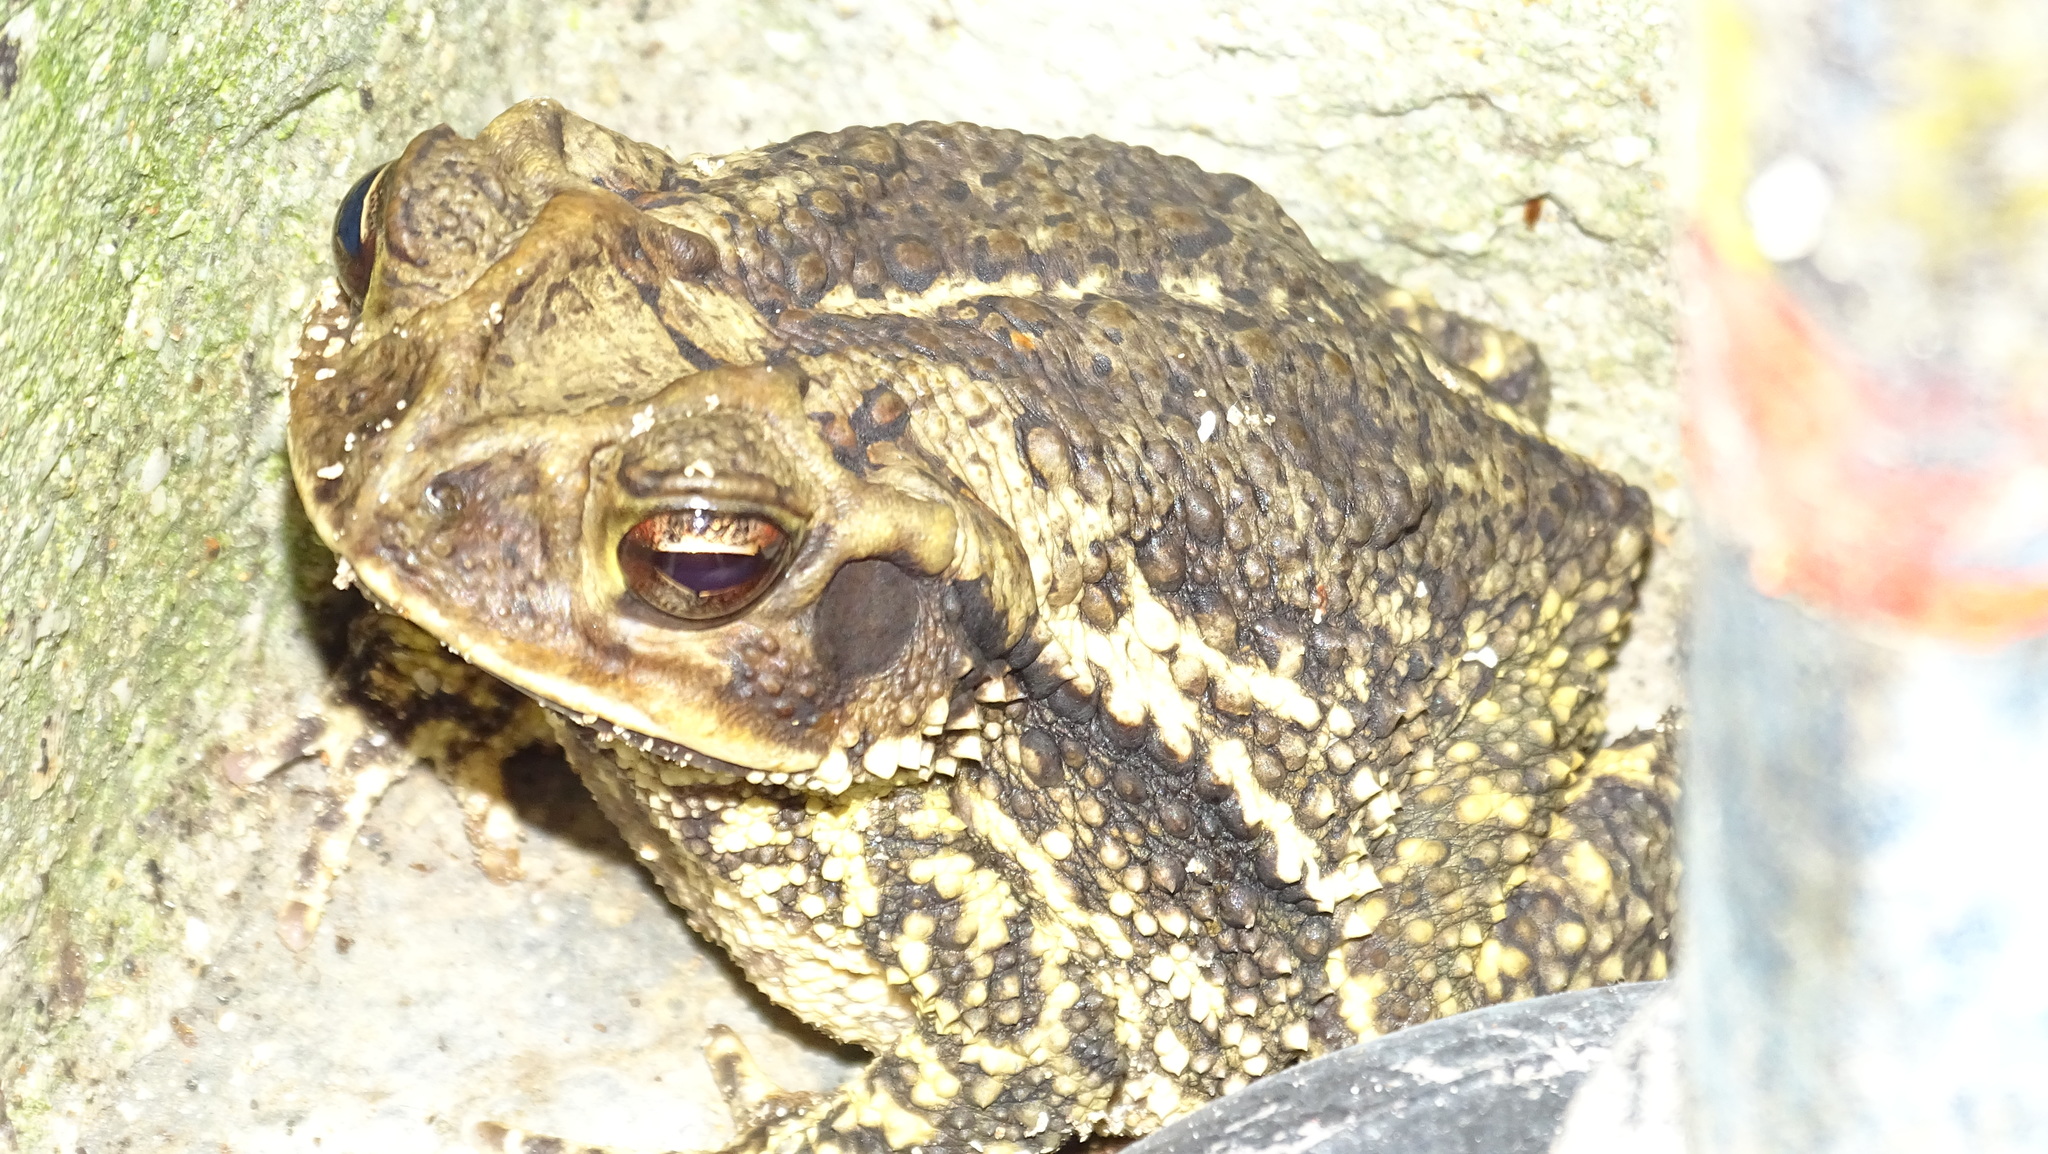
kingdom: Animalia
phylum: Chordata
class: Amphibia
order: Anura
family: Bufonidae
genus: Incilius
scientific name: Incilius valliceps
